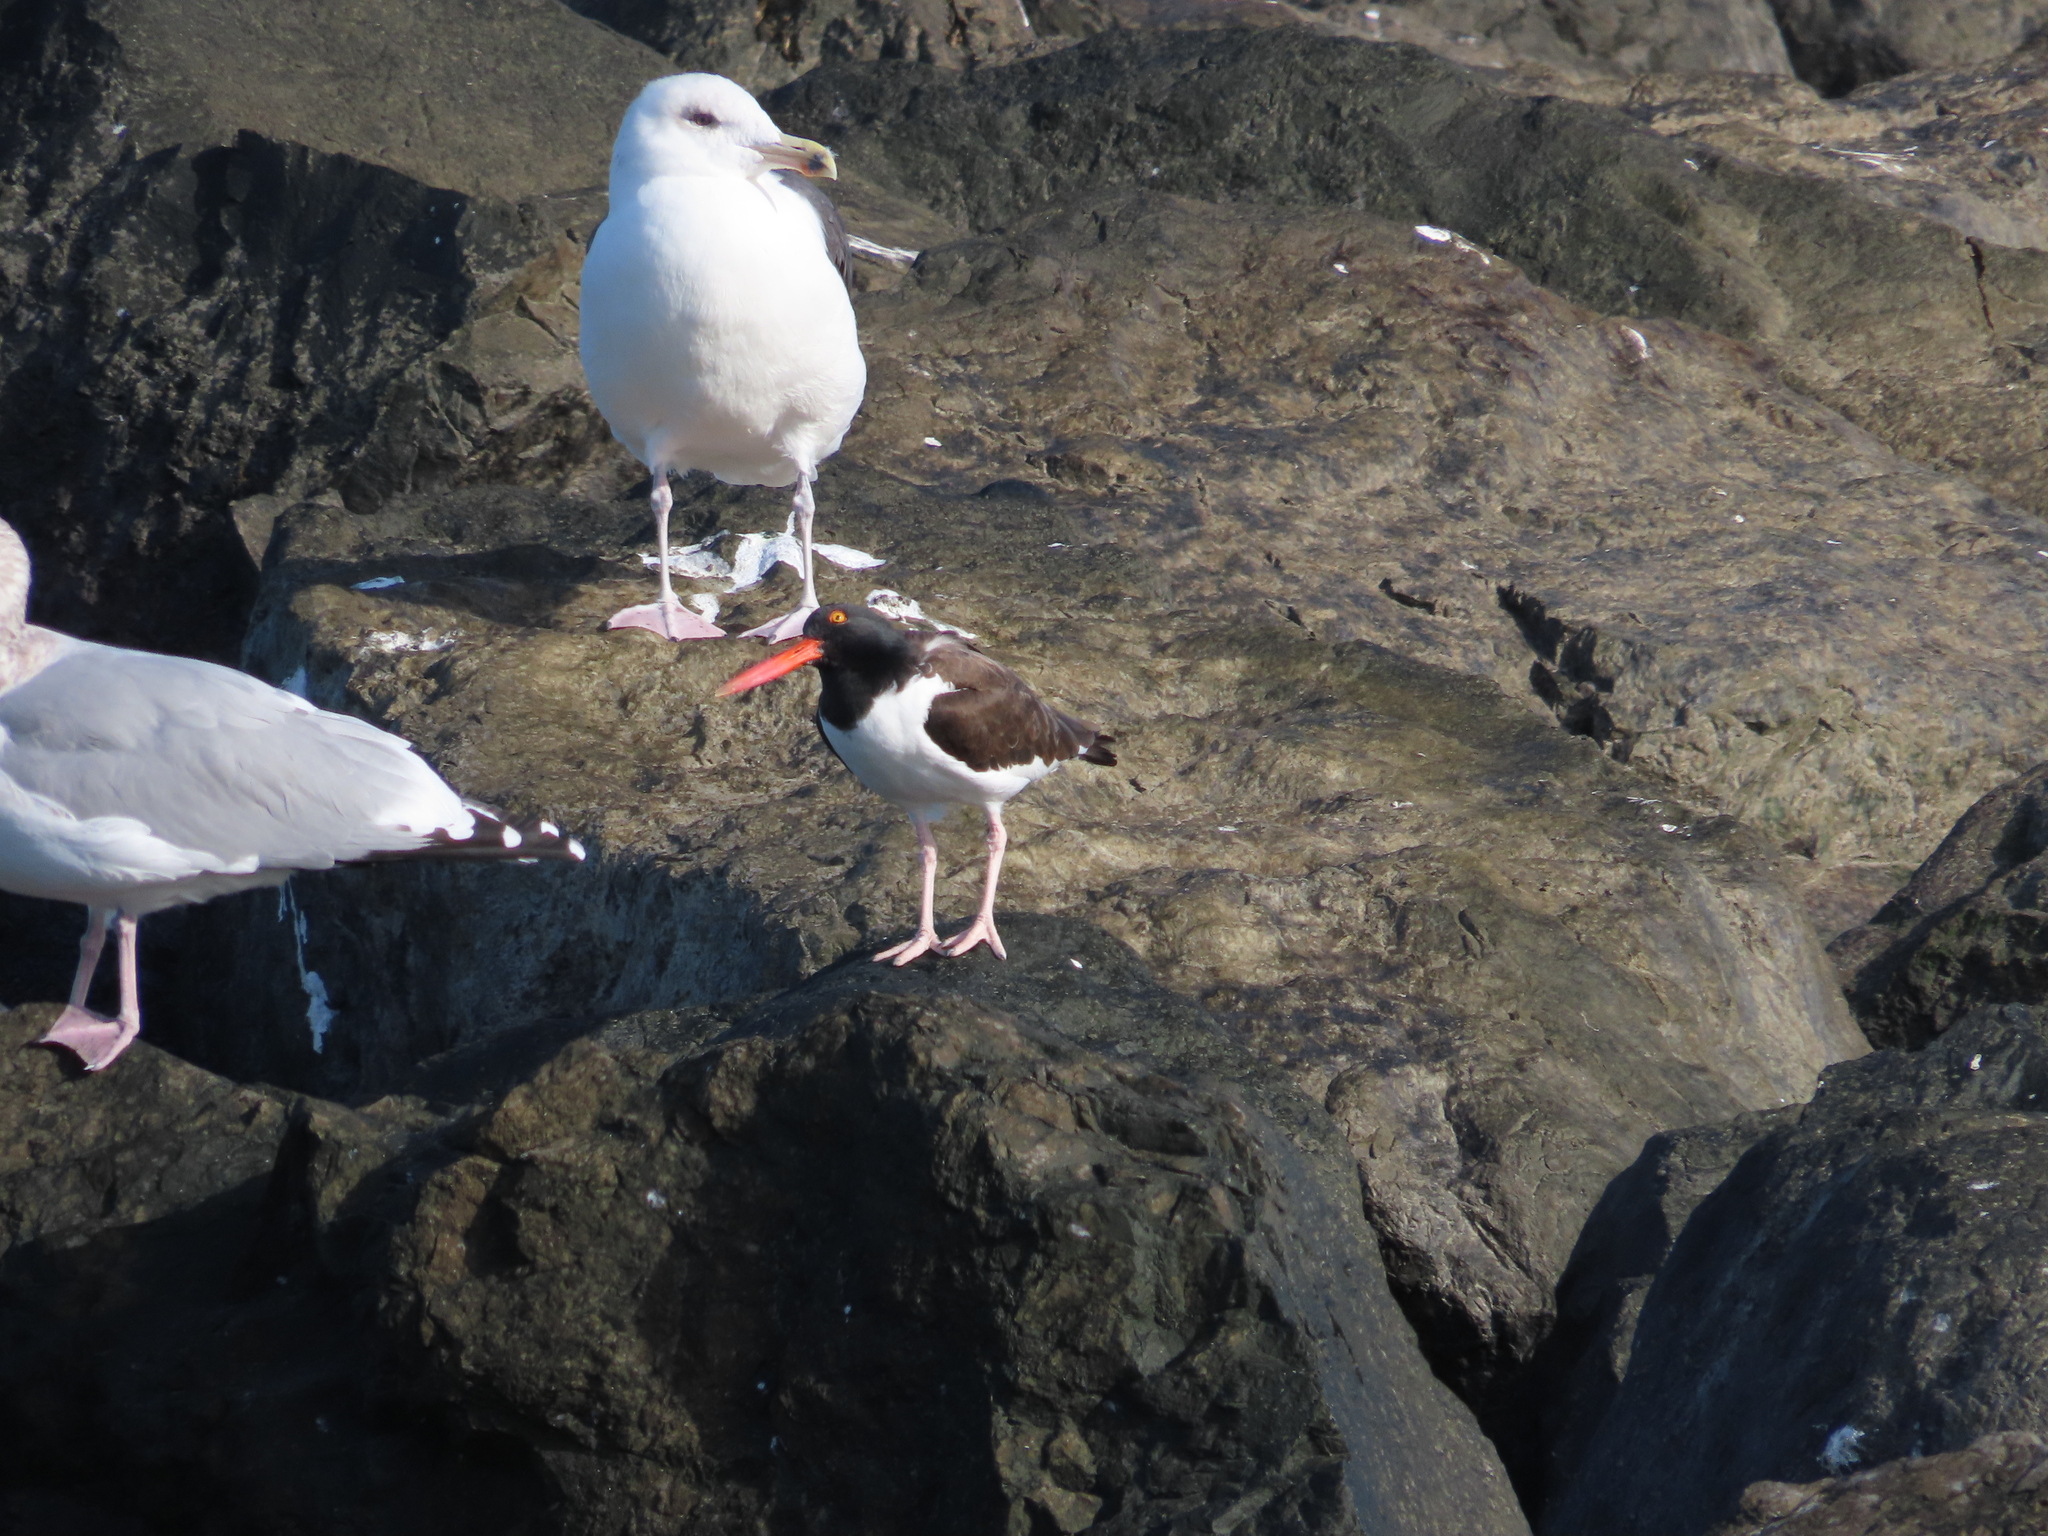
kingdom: Animalia
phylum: Chordata
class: Aves
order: Charadriiformes
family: Haematopodidae
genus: Haematopus
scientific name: Haematopus palliatus
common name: American oystercatcher
